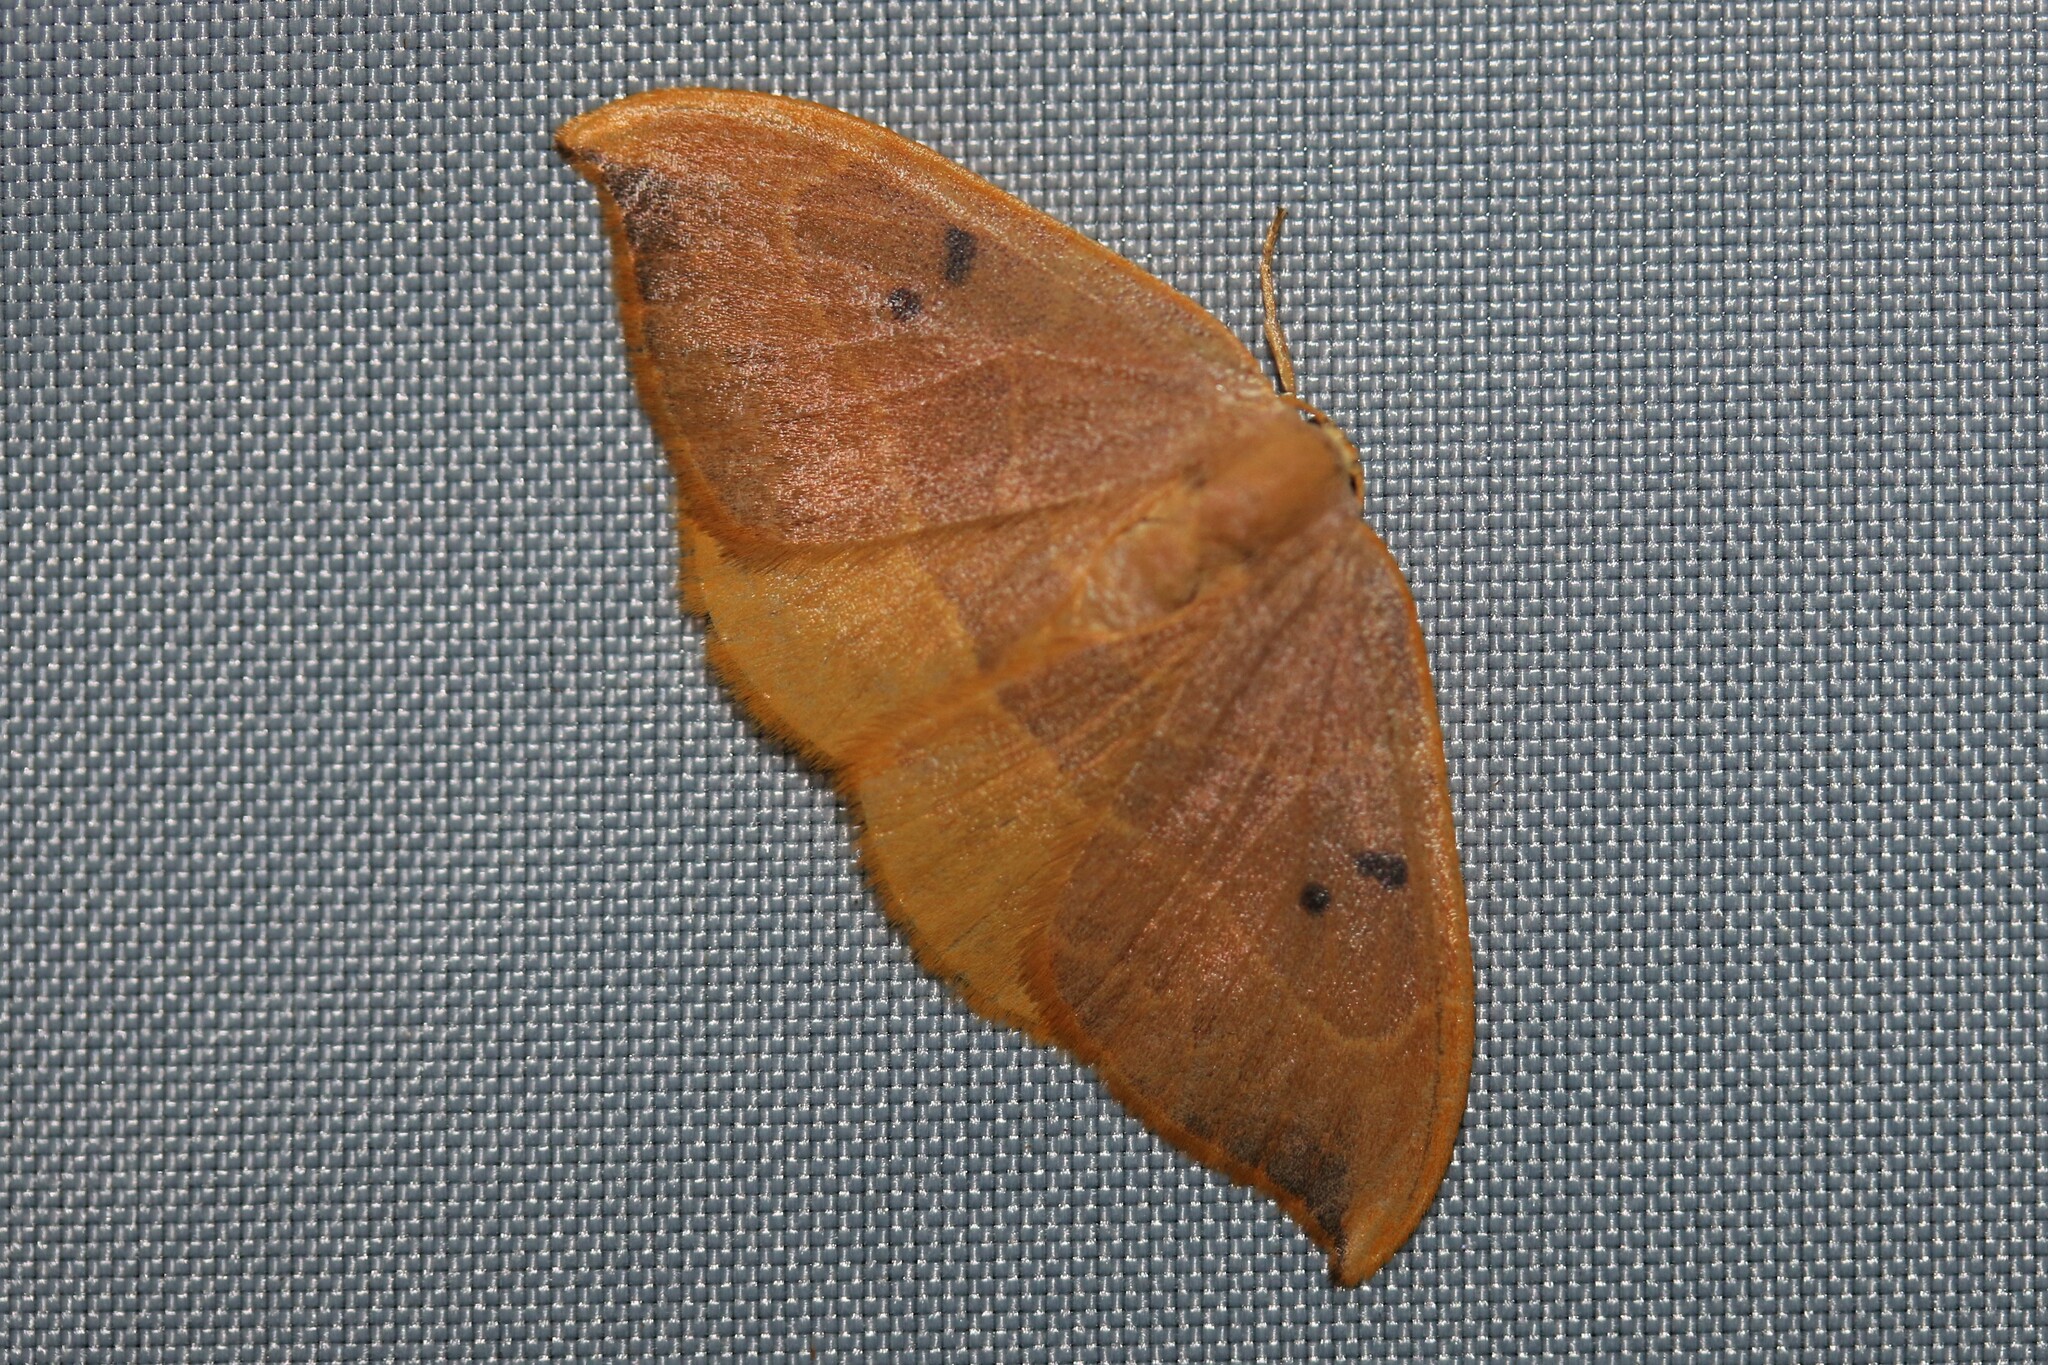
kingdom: Animalia
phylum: Arthropoda
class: Insecta
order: Lepidoptera
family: Drepanidae
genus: Watsonalla
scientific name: Watsonalla binaria
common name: Oak hook-tip
